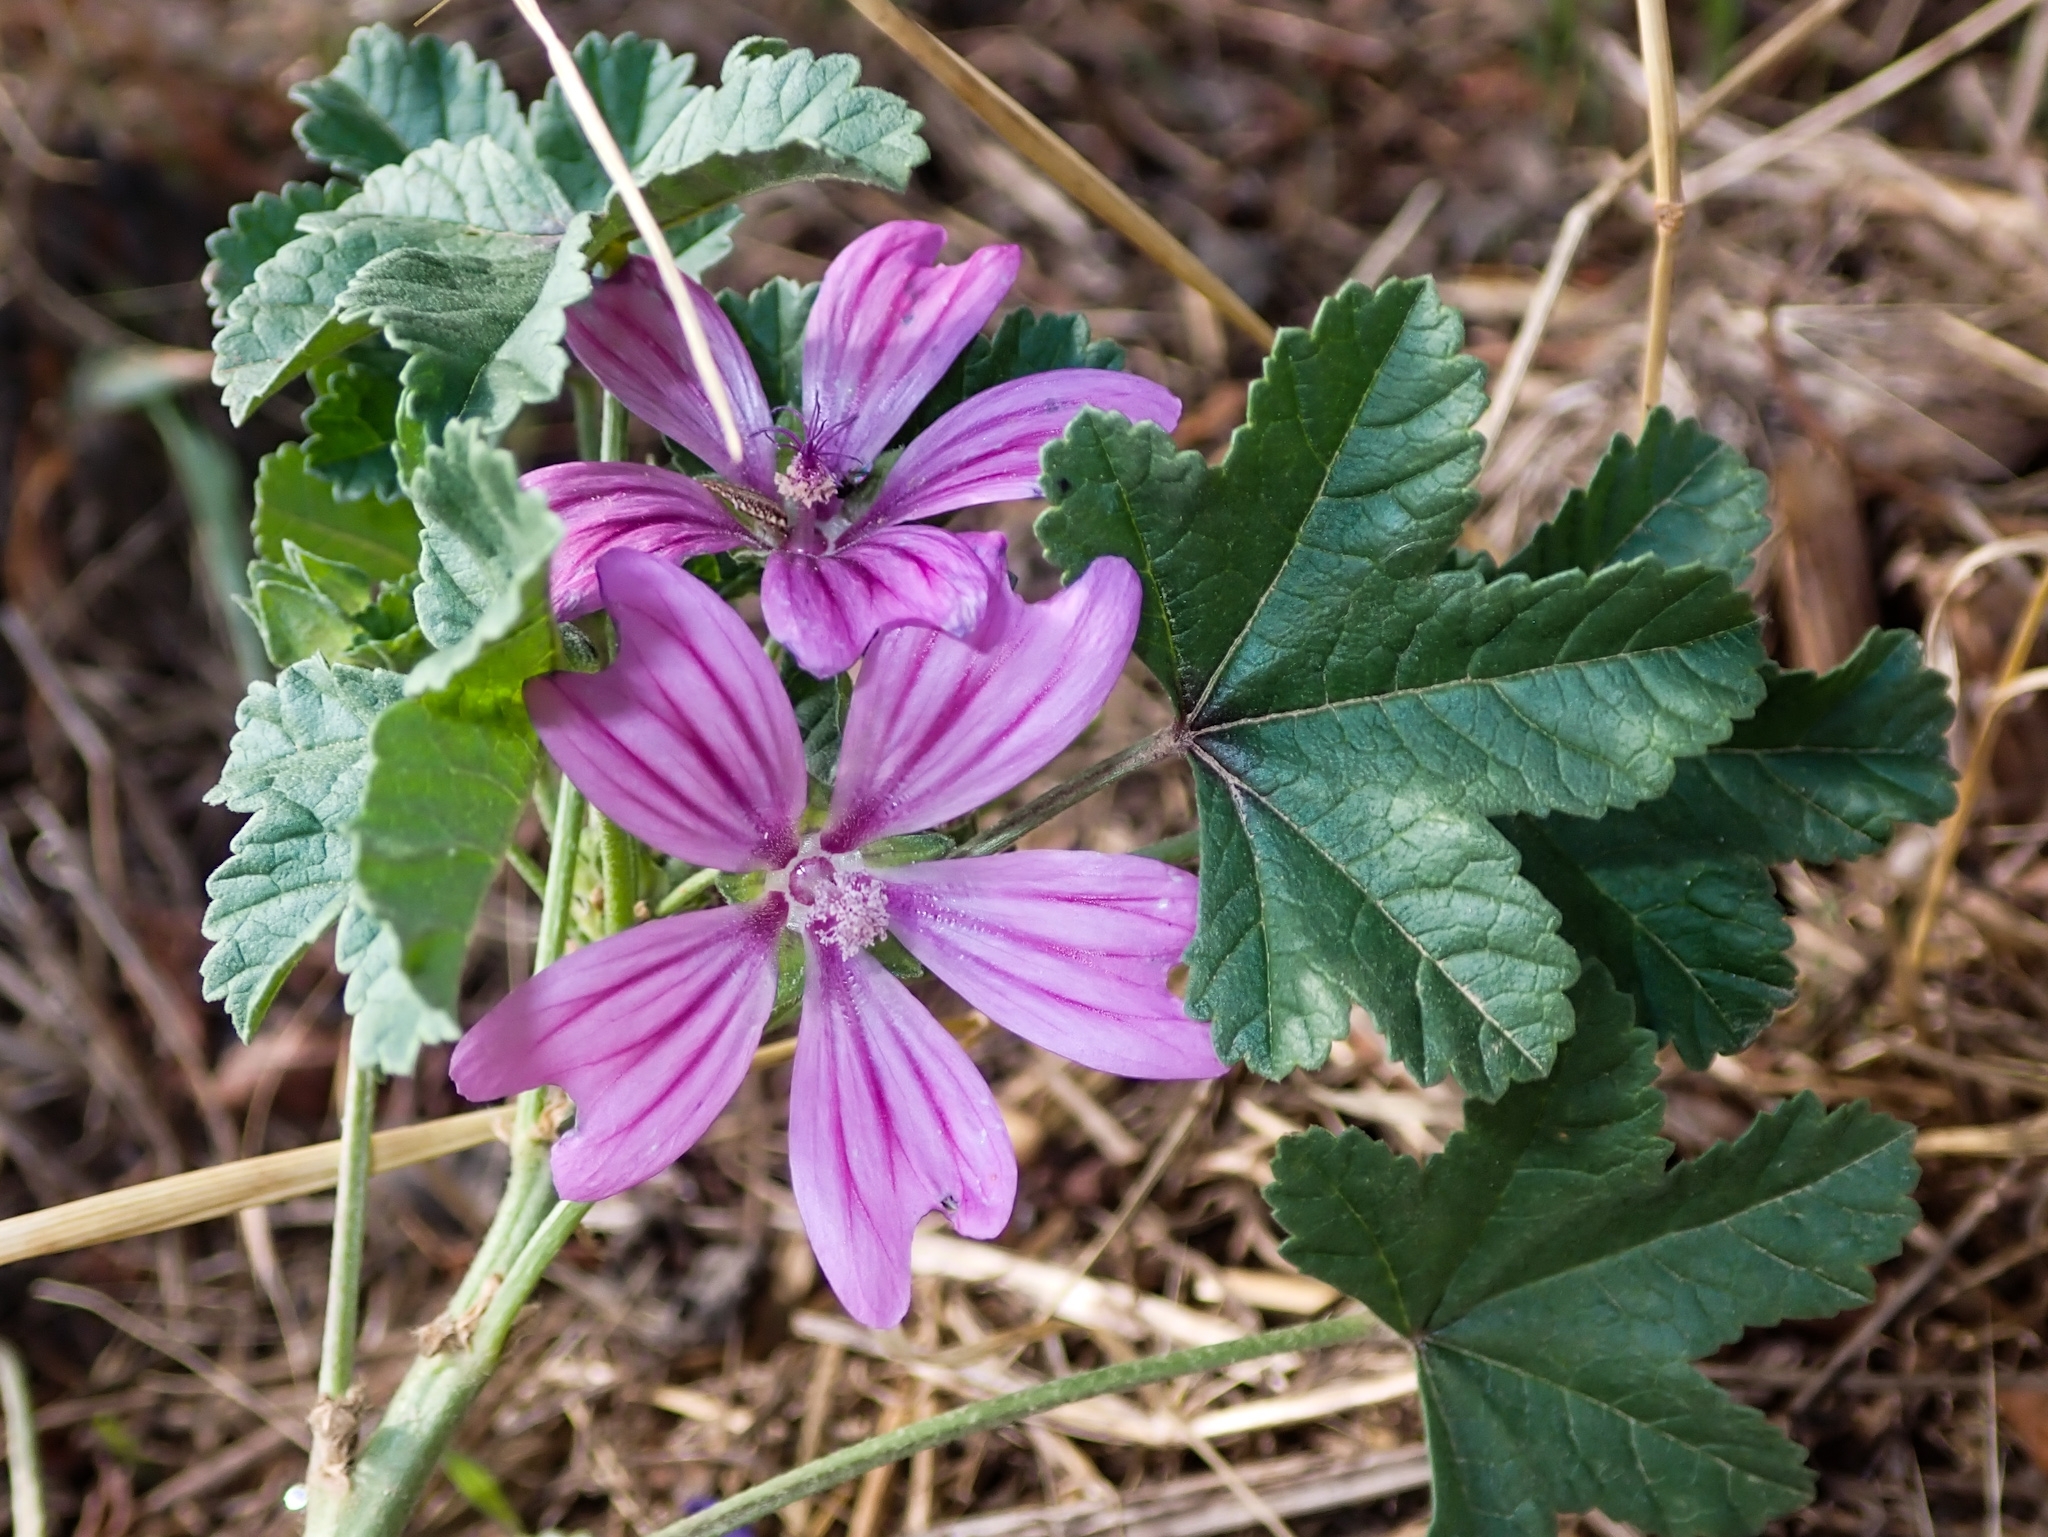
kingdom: Plantae
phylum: Tracheophyta
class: Magnoliopsida
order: Malvales
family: Malvaceae
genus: Malva
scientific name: Malva sylvestris
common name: Common mallow
